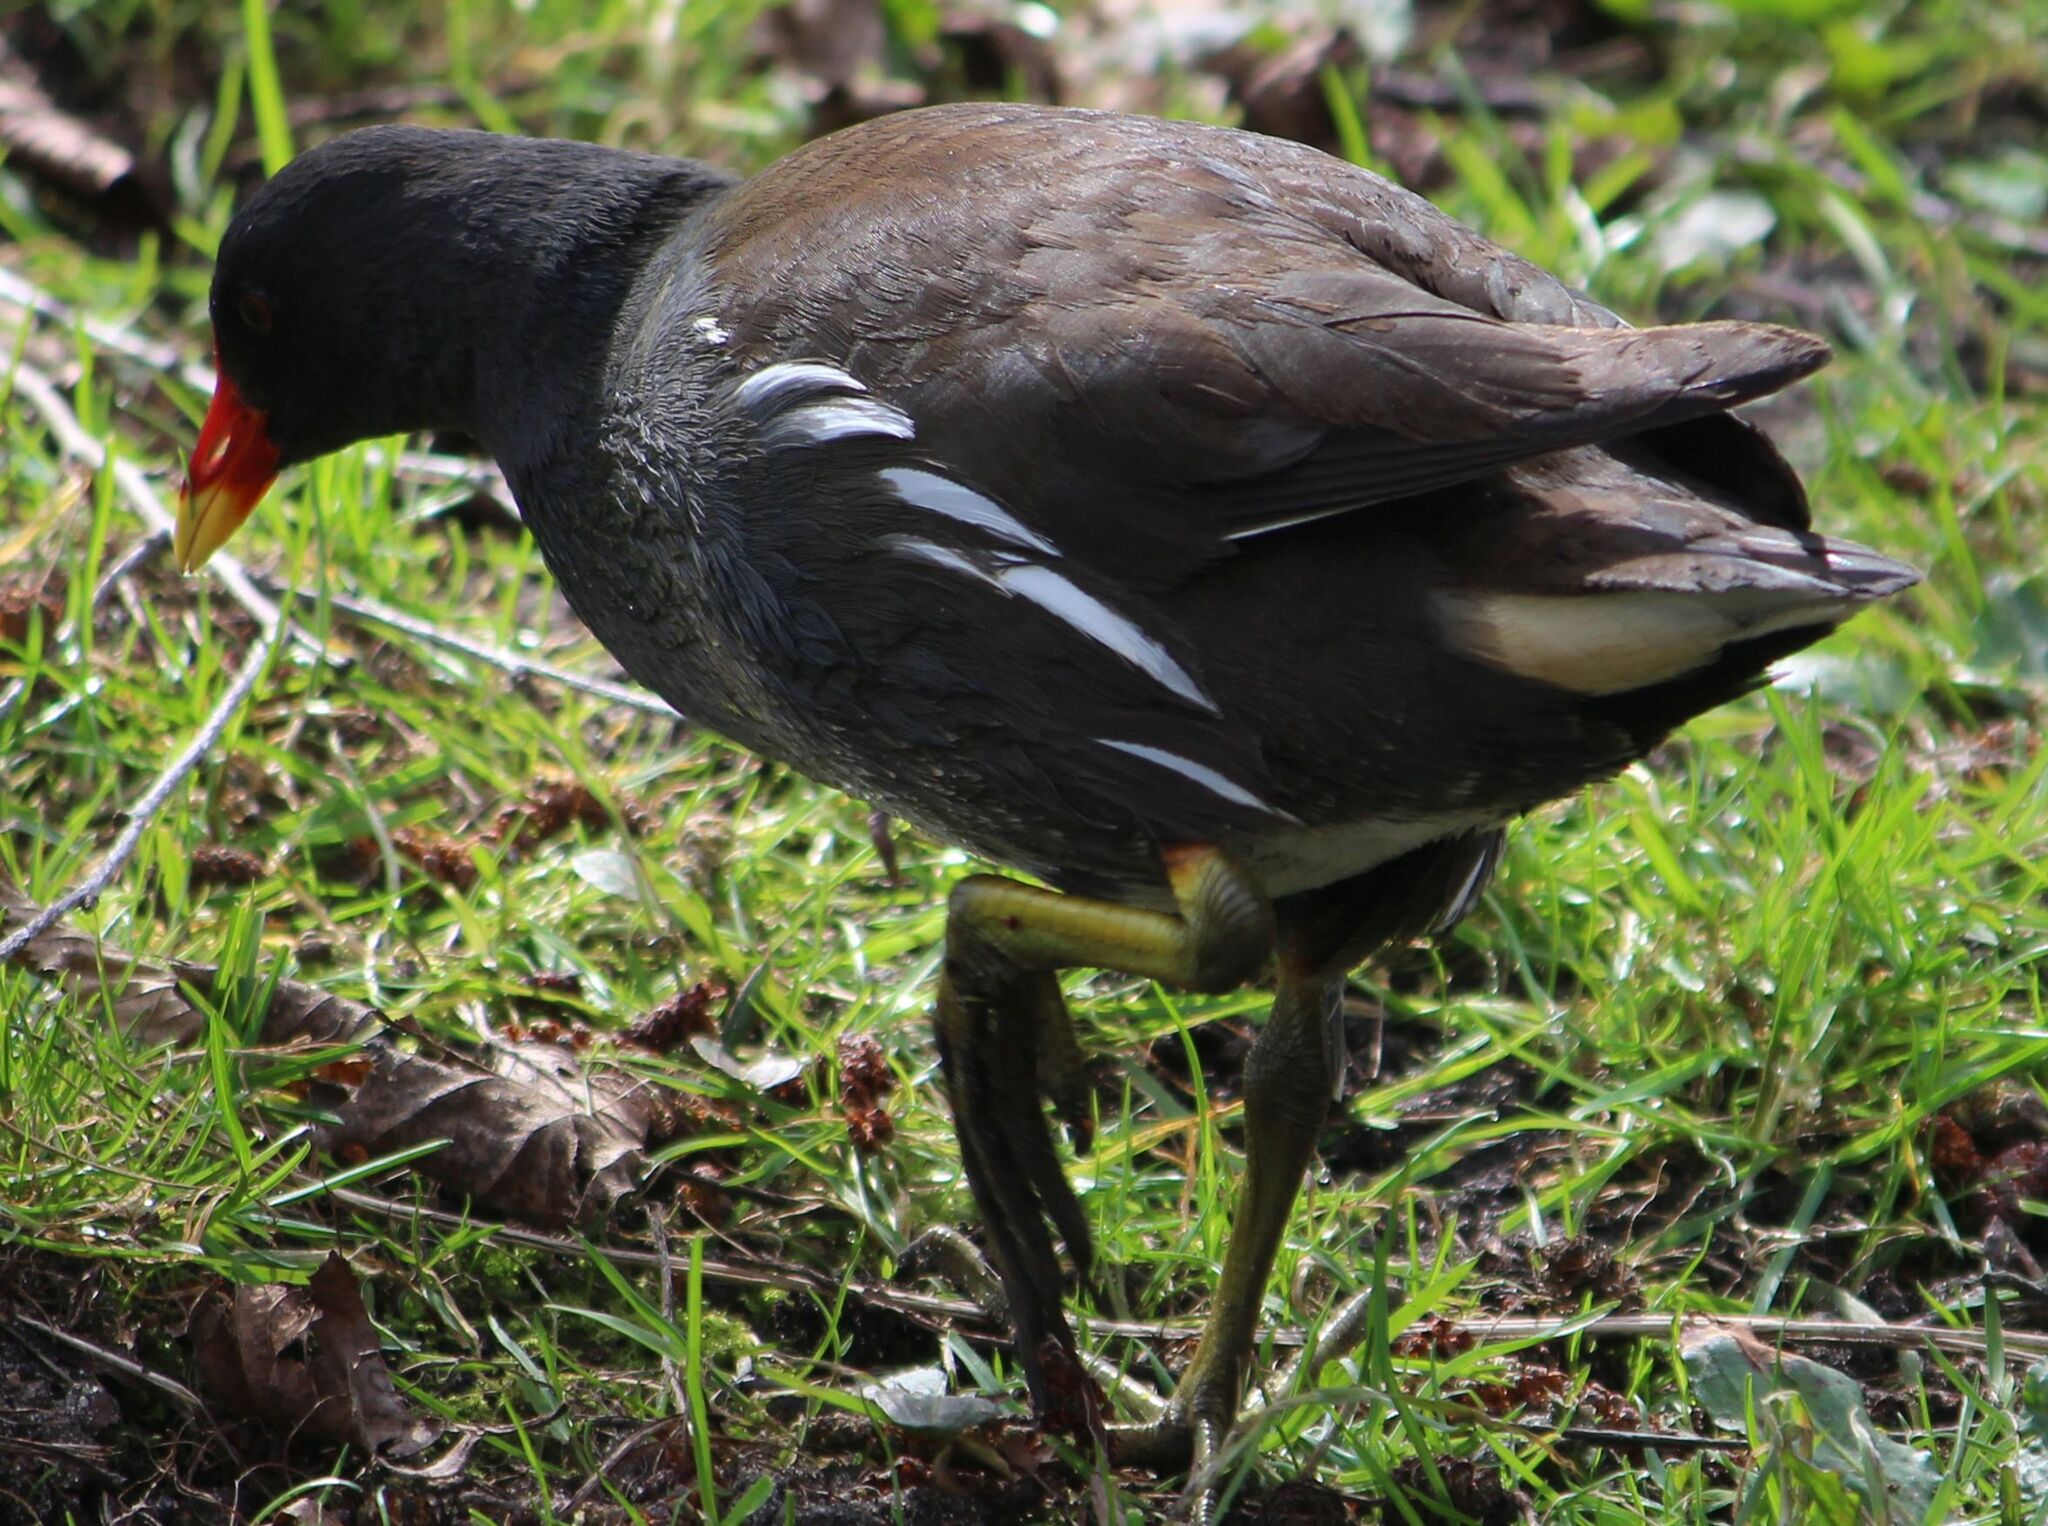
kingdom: Animalia
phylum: Chordata
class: Aves
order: Gruiformes
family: Rallidae
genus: Gallinula
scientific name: Gallinula chloropus
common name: Common moorhen
